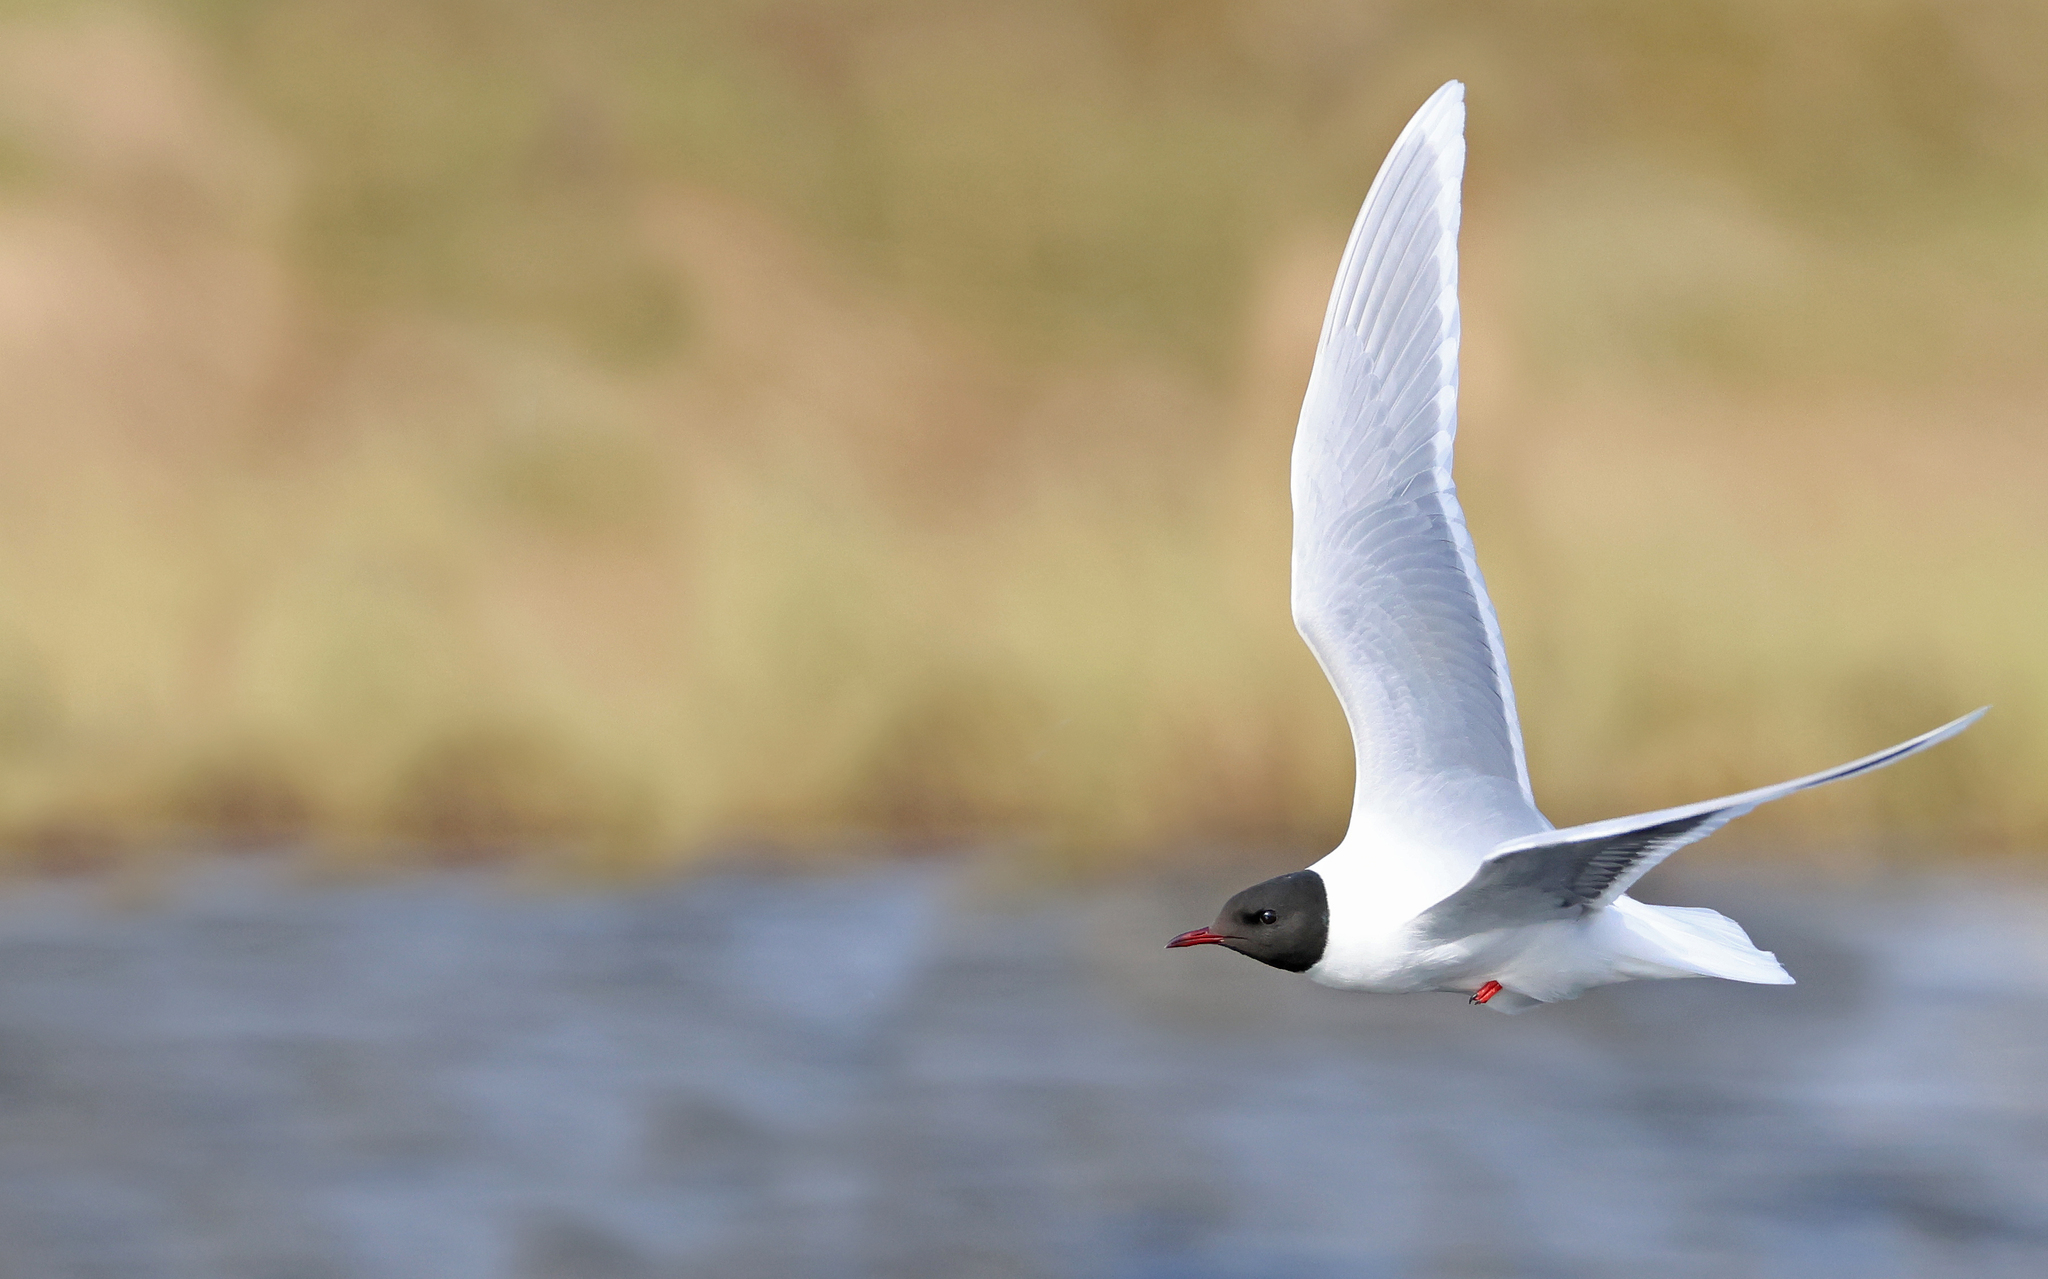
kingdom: Animalia
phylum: Chordata
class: Aves
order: Charadriiformes
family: Laridae
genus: Hydrocoloeus
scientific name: Hydrocoloeus minutus
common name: Little gull
